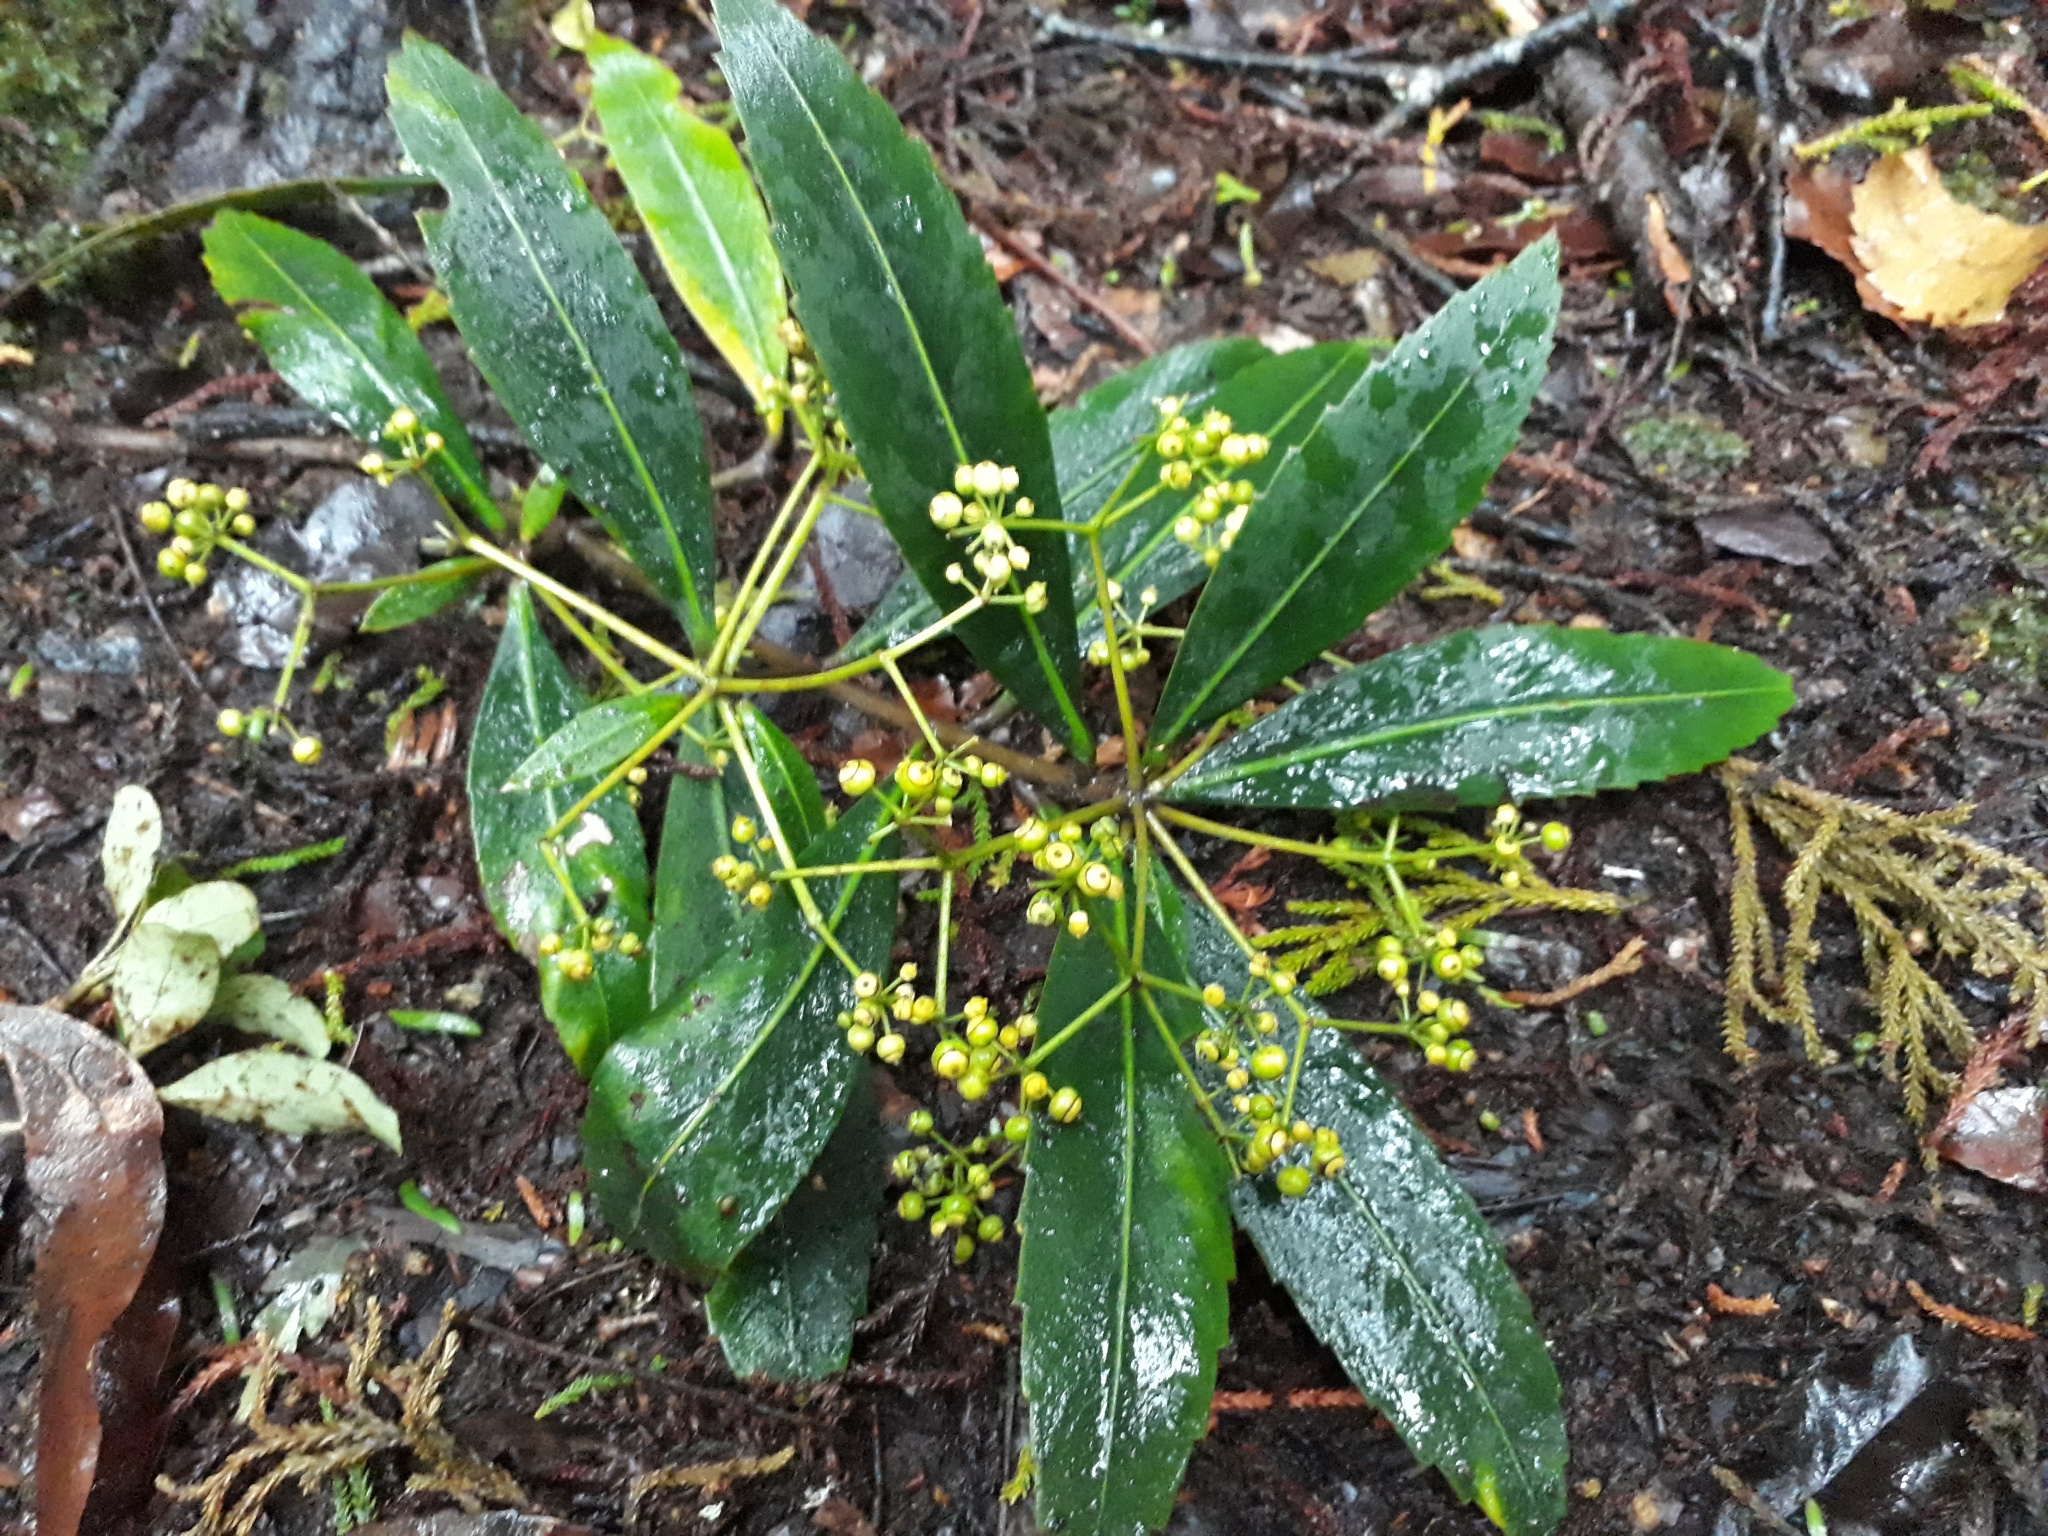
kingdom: Plantae
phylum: Tracheophyta
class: Magnoliopsida
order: Apiales
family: Araliaceae
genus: Pseudopanax
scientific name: Pseudopanax crassifolius
